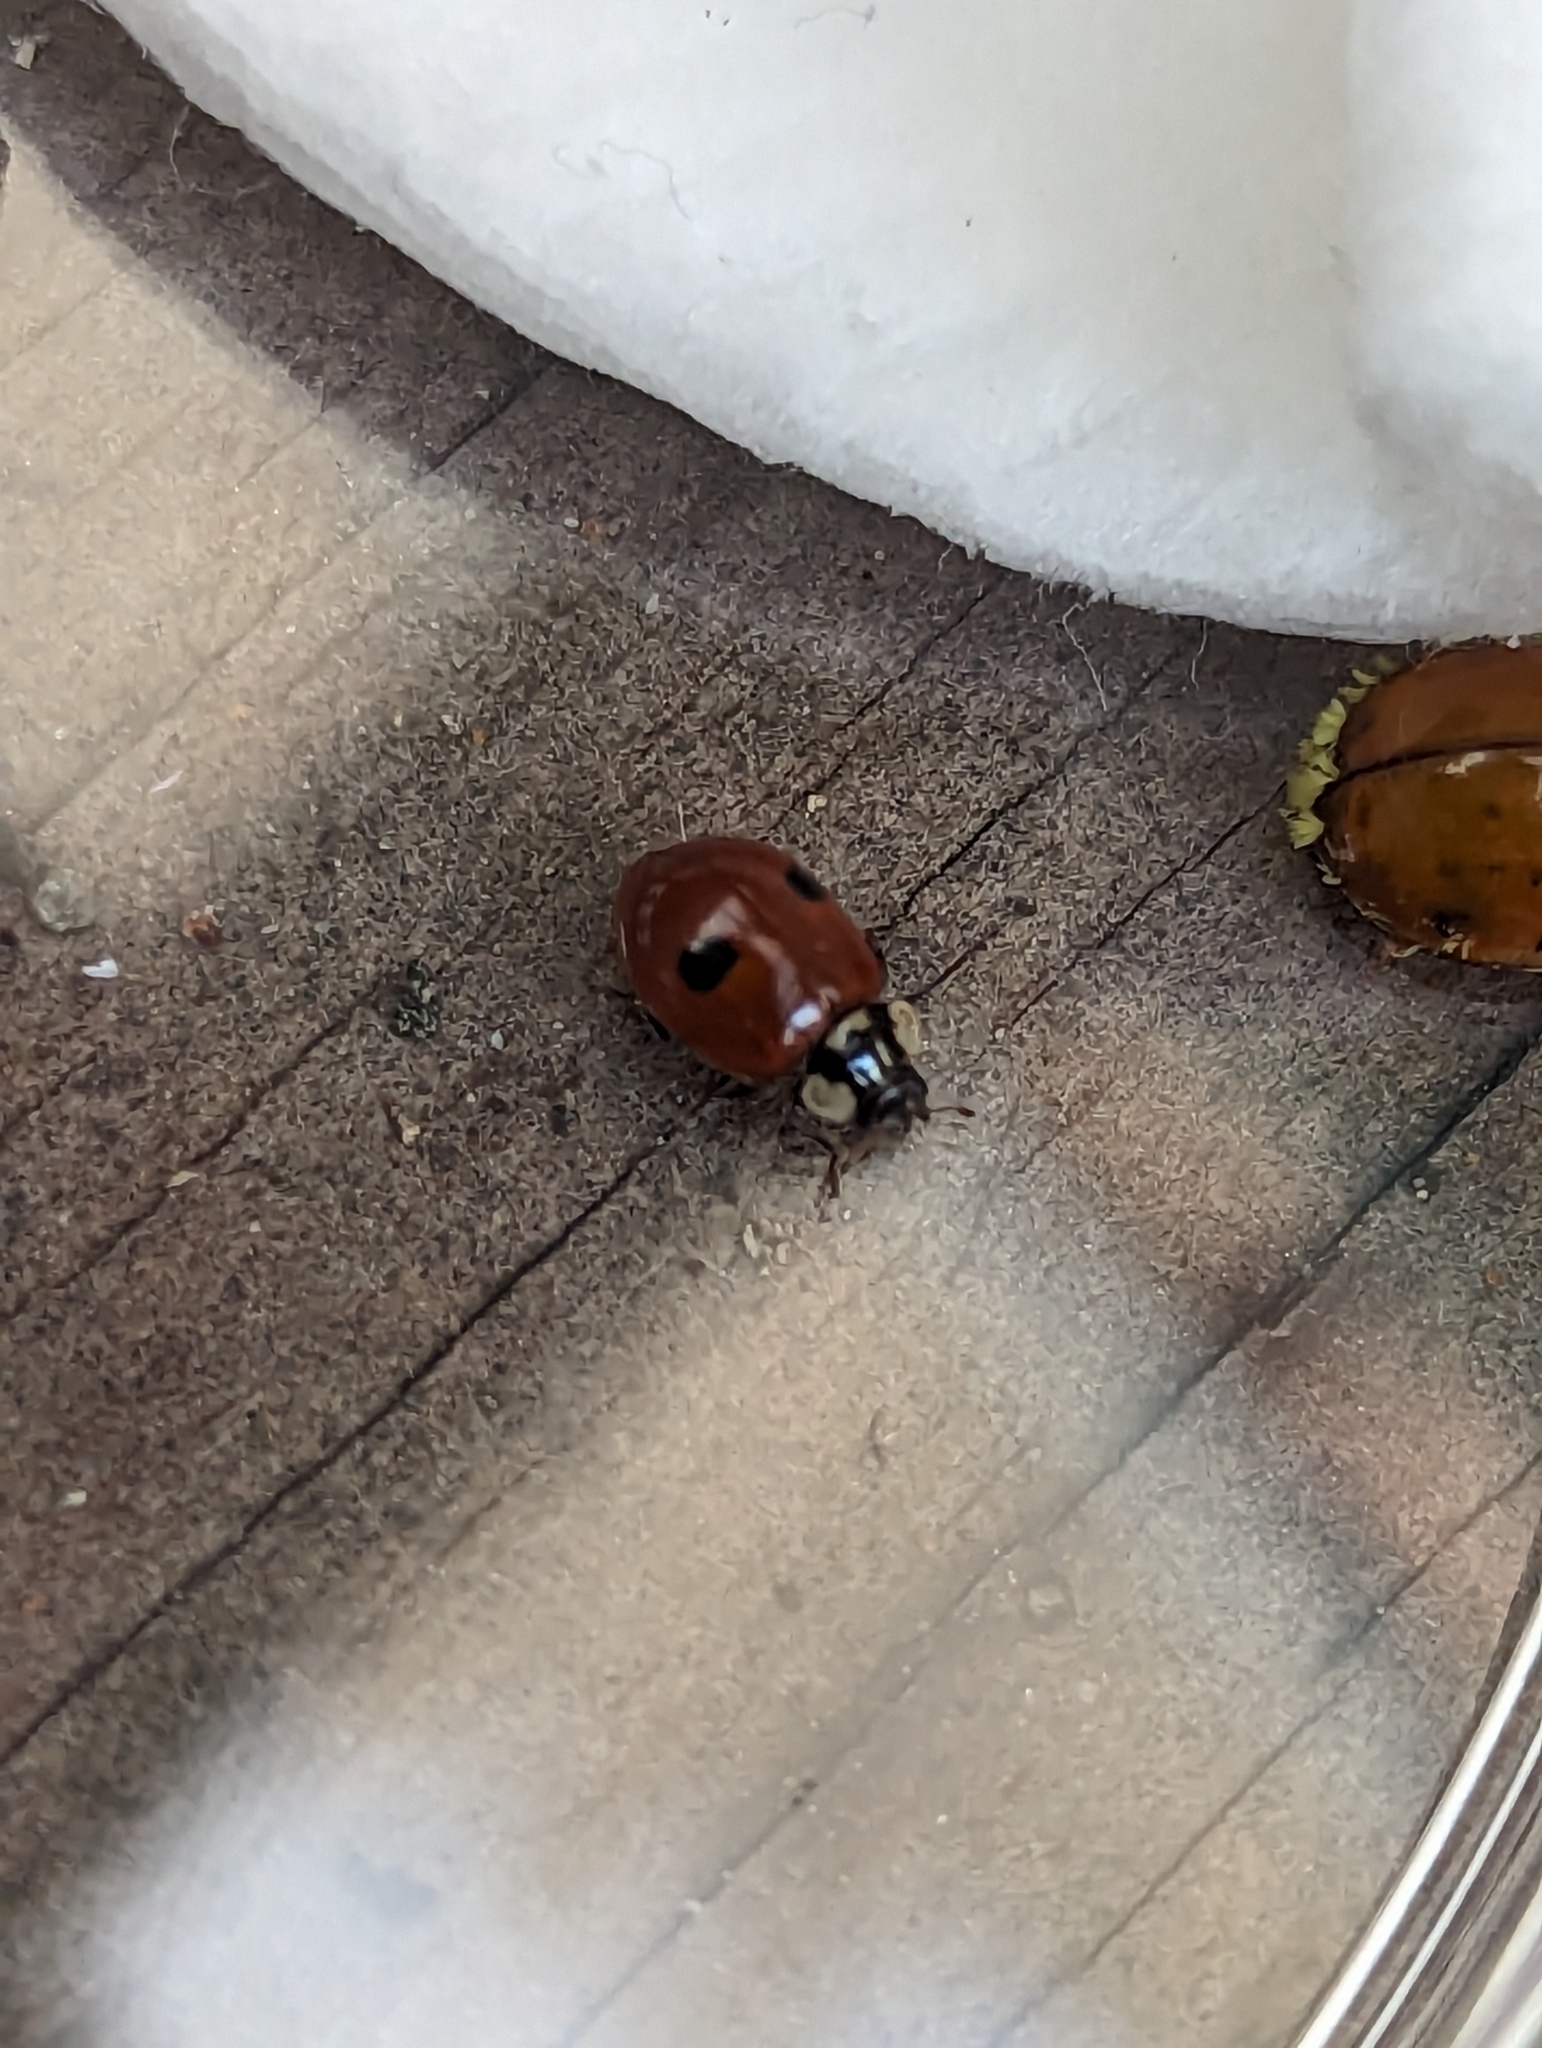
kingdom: Animalia
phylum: Arthropoda
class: Insecta
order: Coleoptera
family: Coccinellidae
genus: Adalia
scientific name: Adalia bipunctata
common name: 2-spot ladybird
